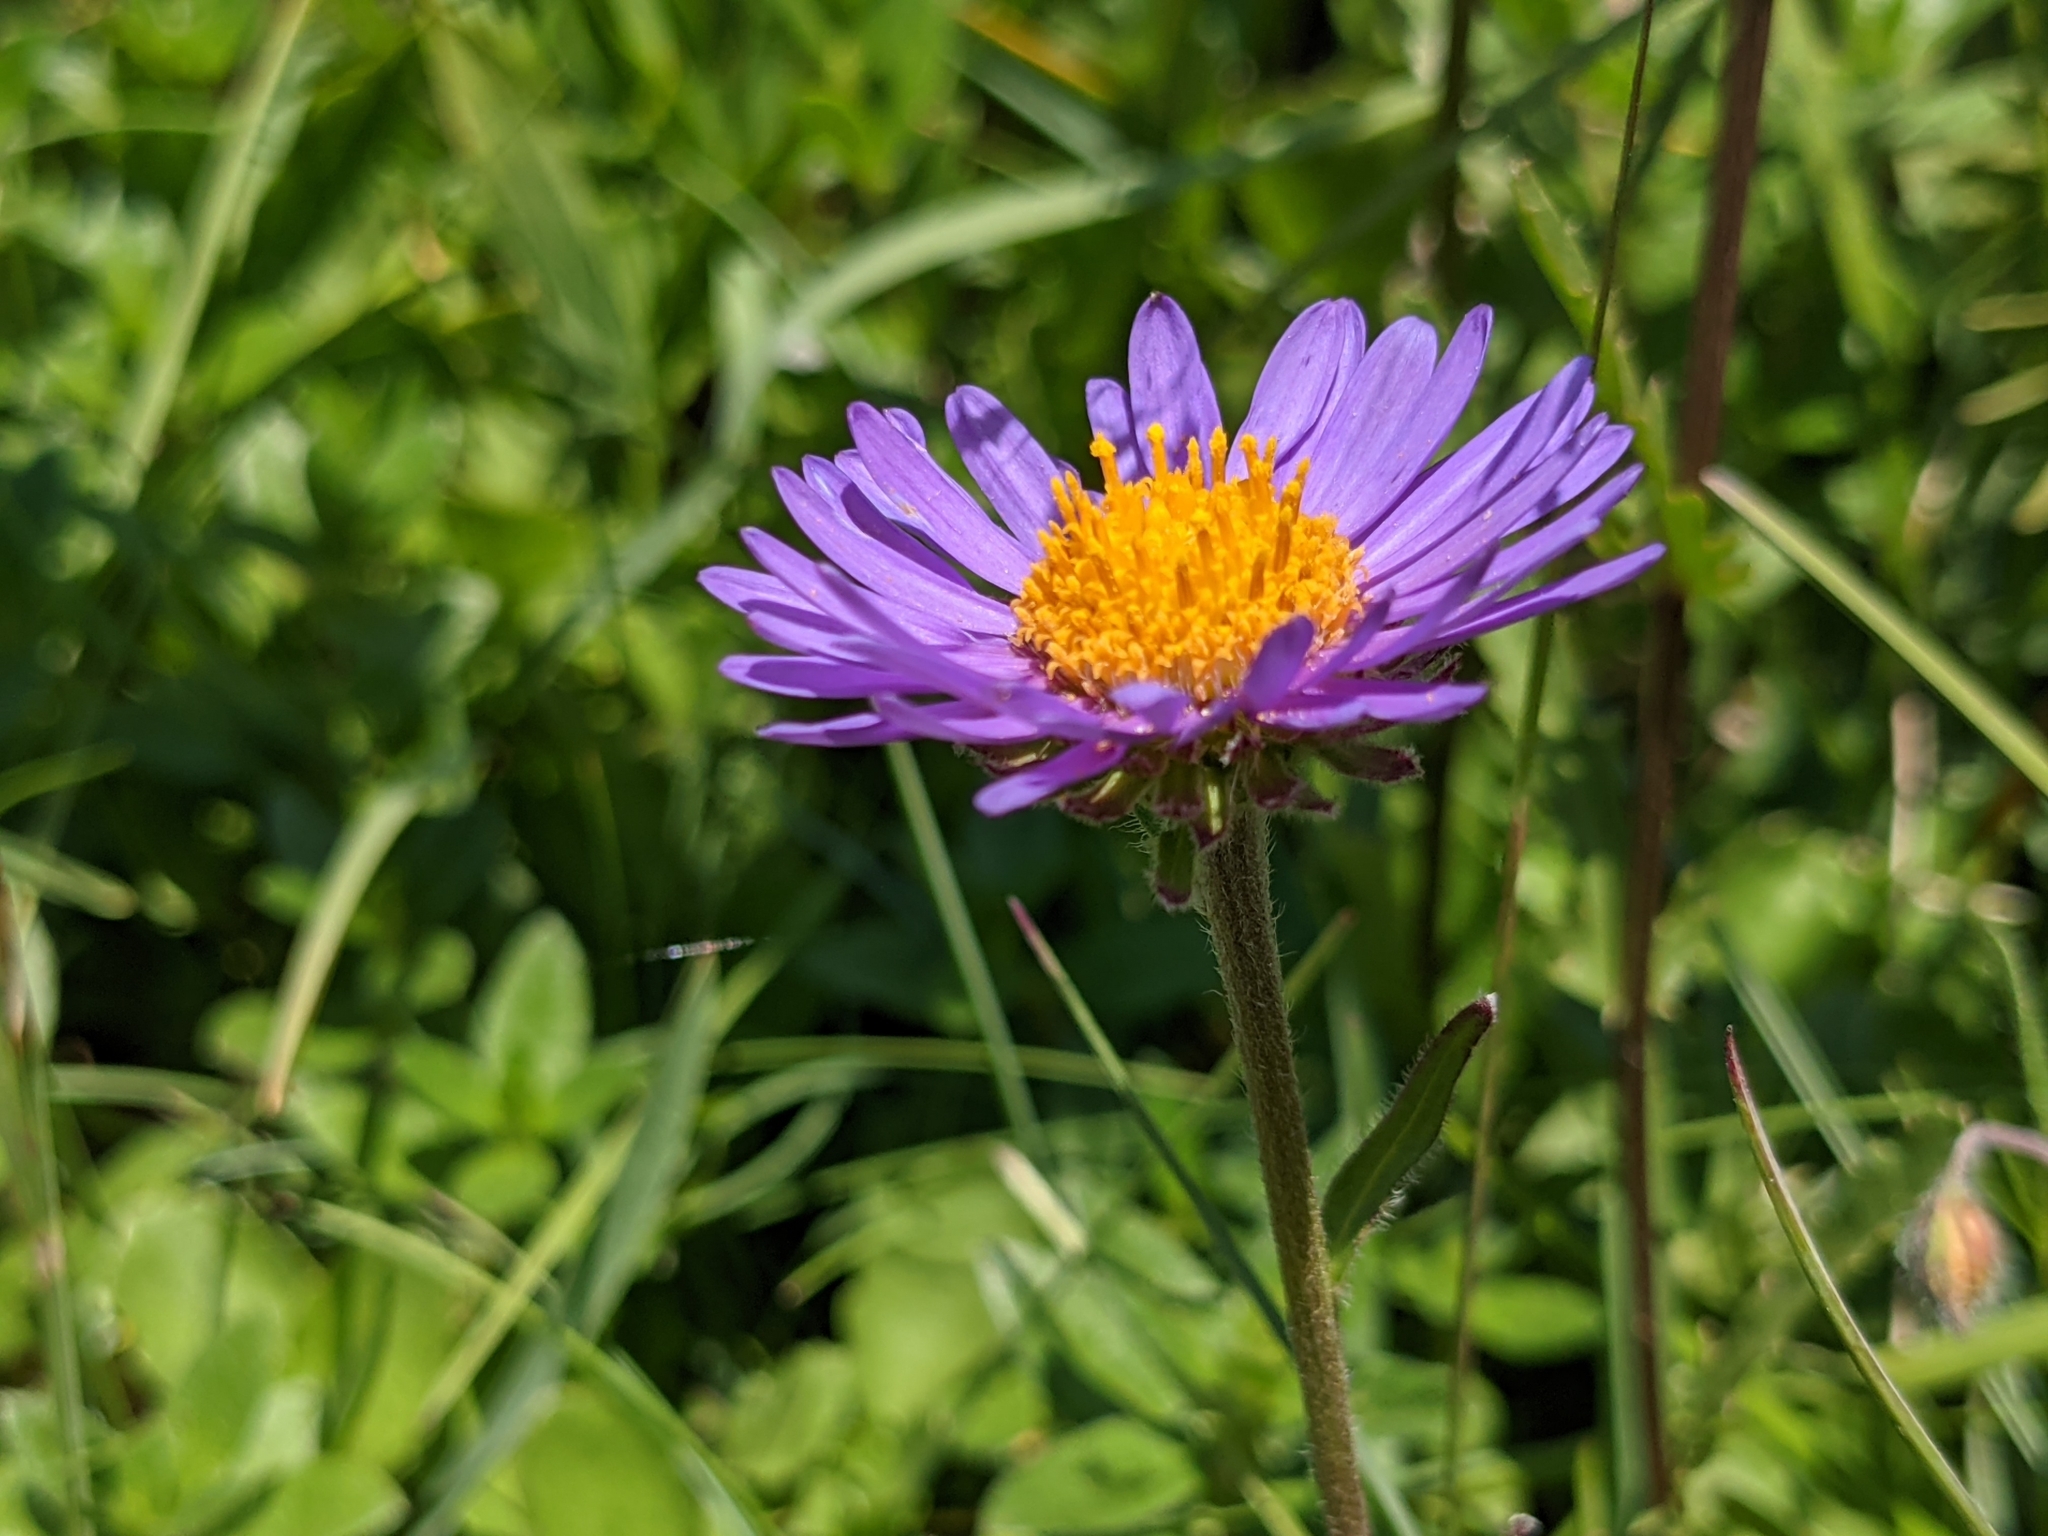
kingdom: Plantae
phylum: Tracheophyta
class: Magnoliopsida
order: Asterales
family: Asteraceae
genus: Aster
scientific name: Aster alpinus
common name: Alpine aster
